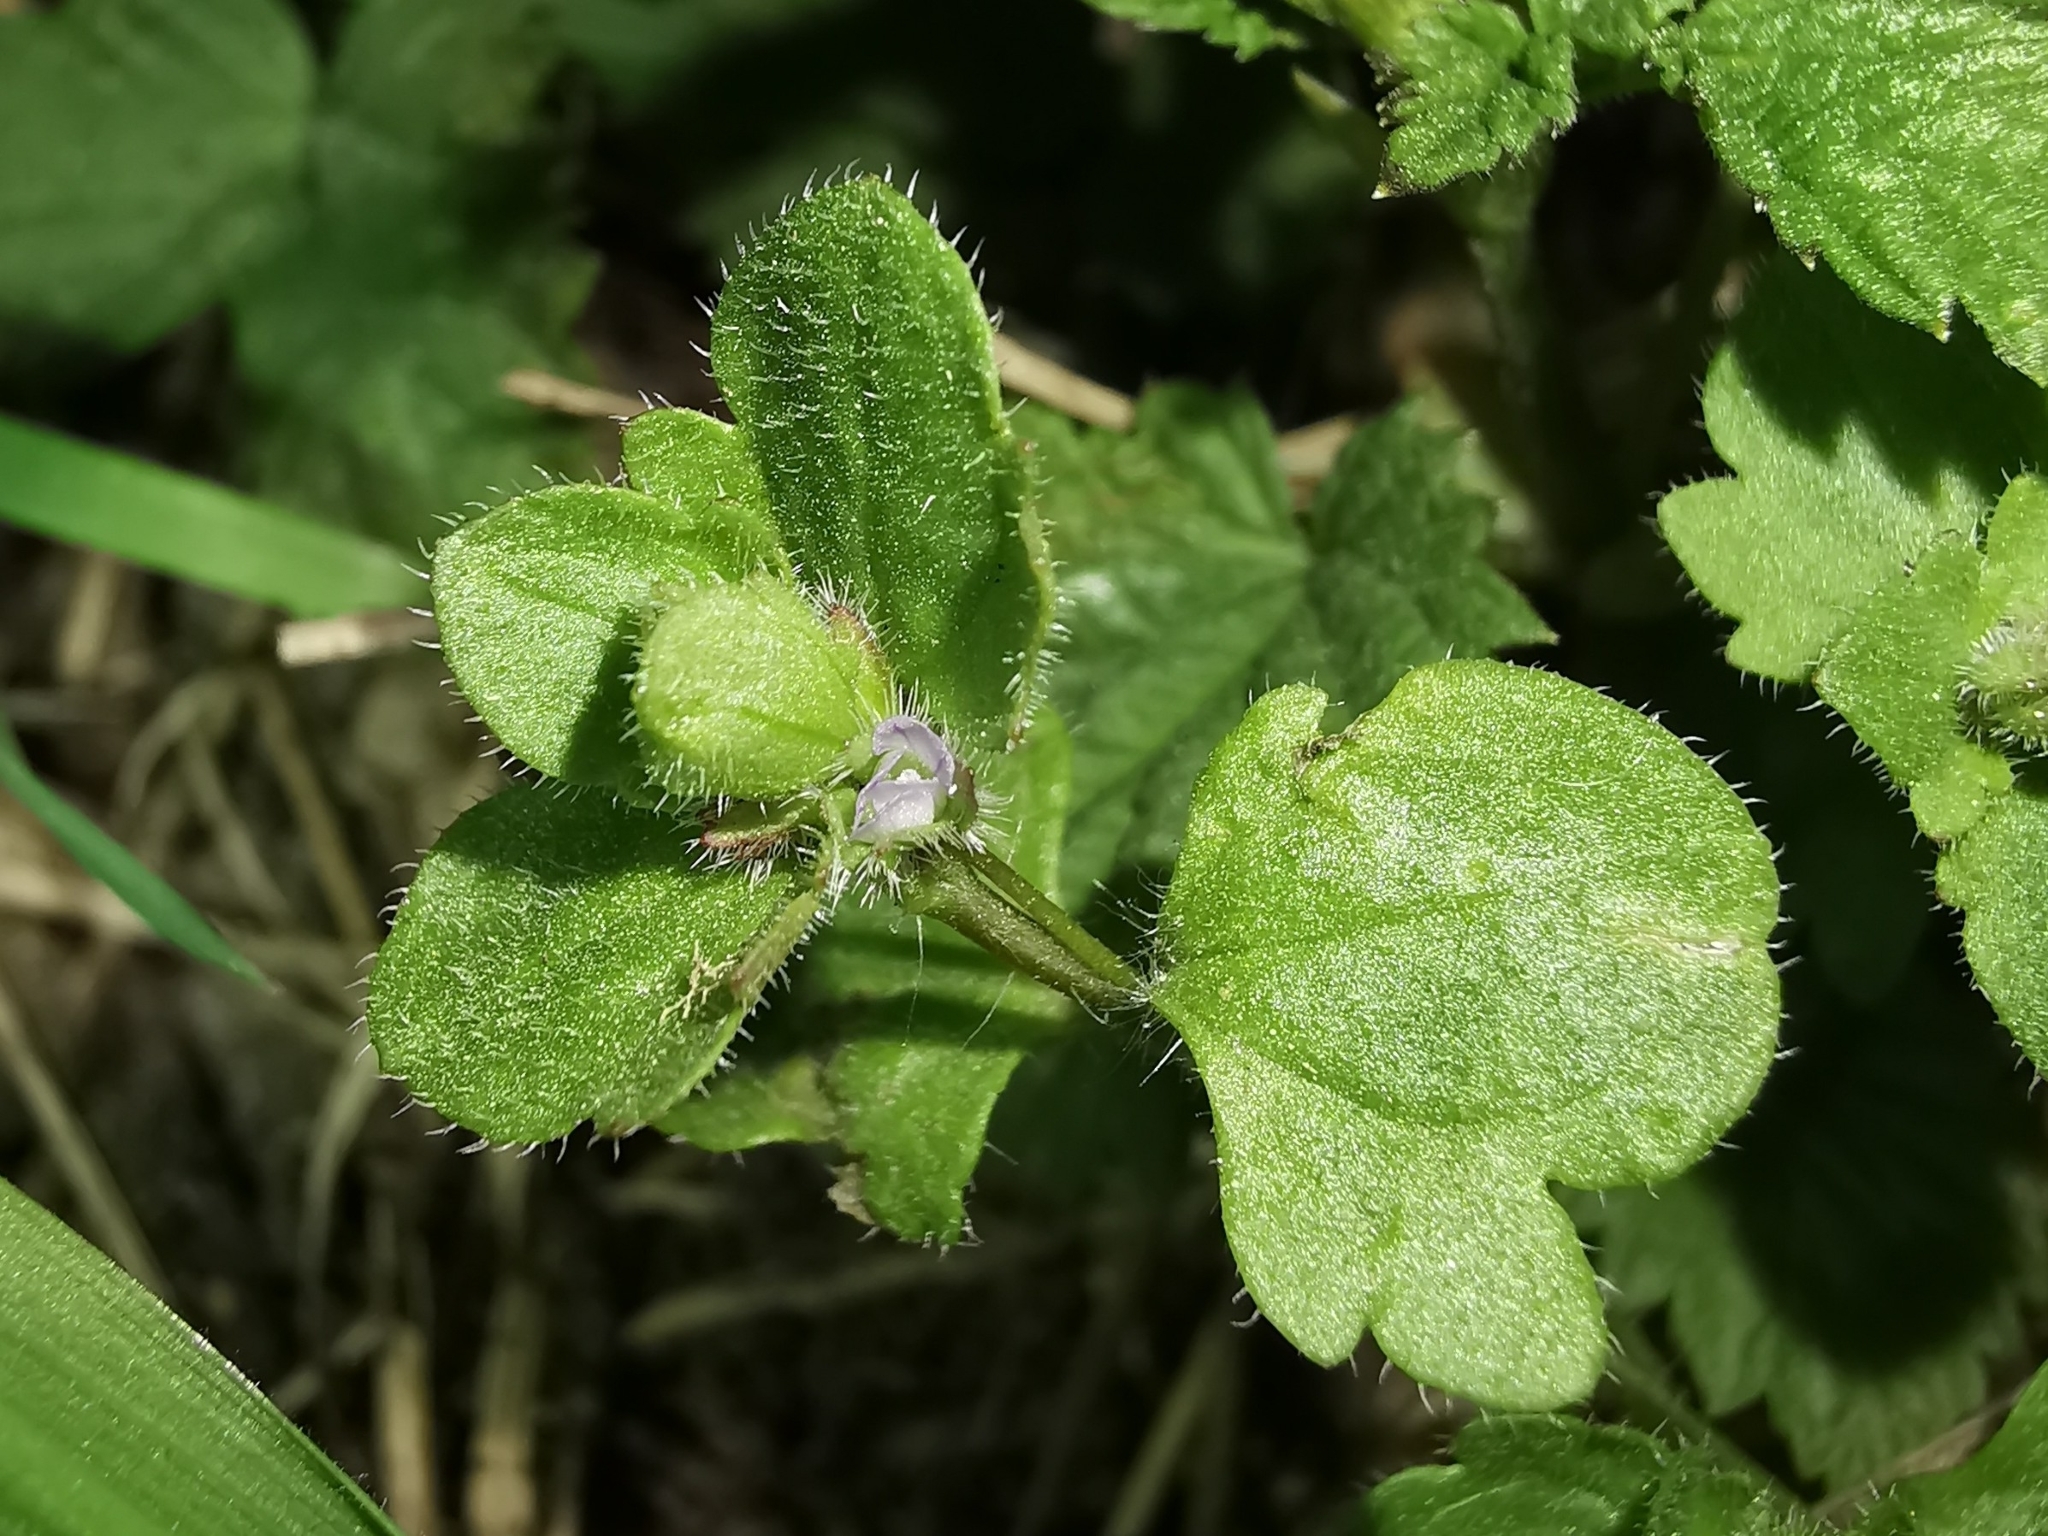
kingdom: Plantae
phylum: Tracheophyta
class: Magnoliopsida
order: Lamiales
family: Plantaginaceae
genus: Veronica
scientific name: Veronica sublobata
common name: False ivy-leaved speedwell
